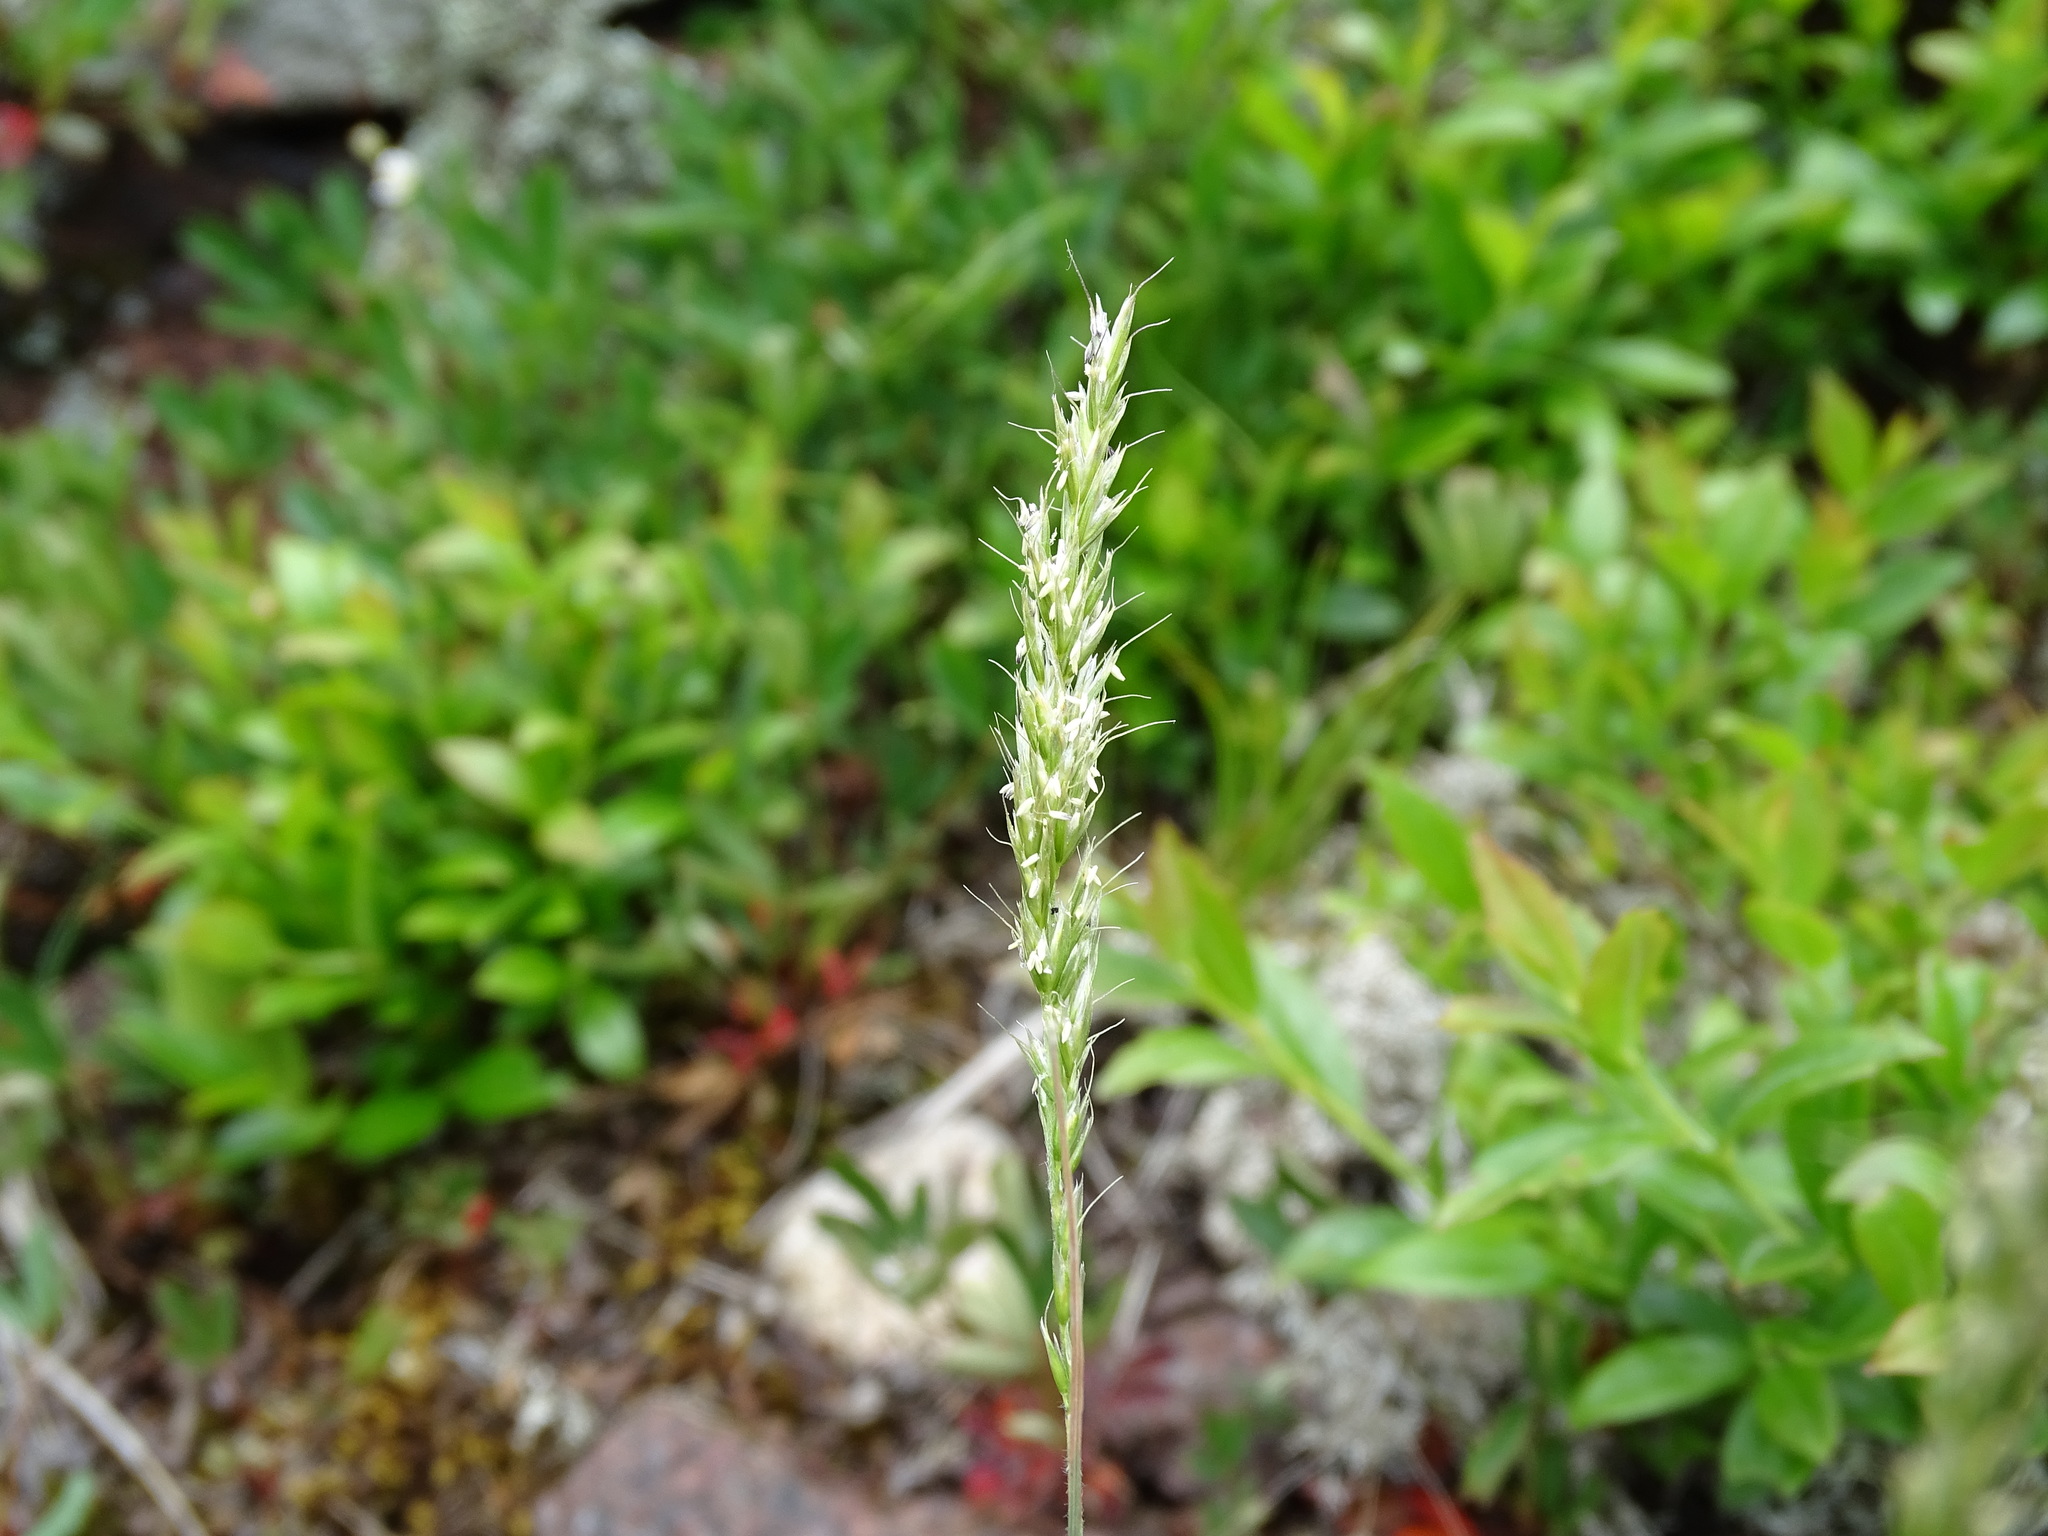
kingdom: Plantae
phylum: Tracheophyta
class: Liliopsida
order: Poales
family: Poaceae
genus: Koeleria
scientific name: Koeleria spicata
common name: Mountain trisetum
